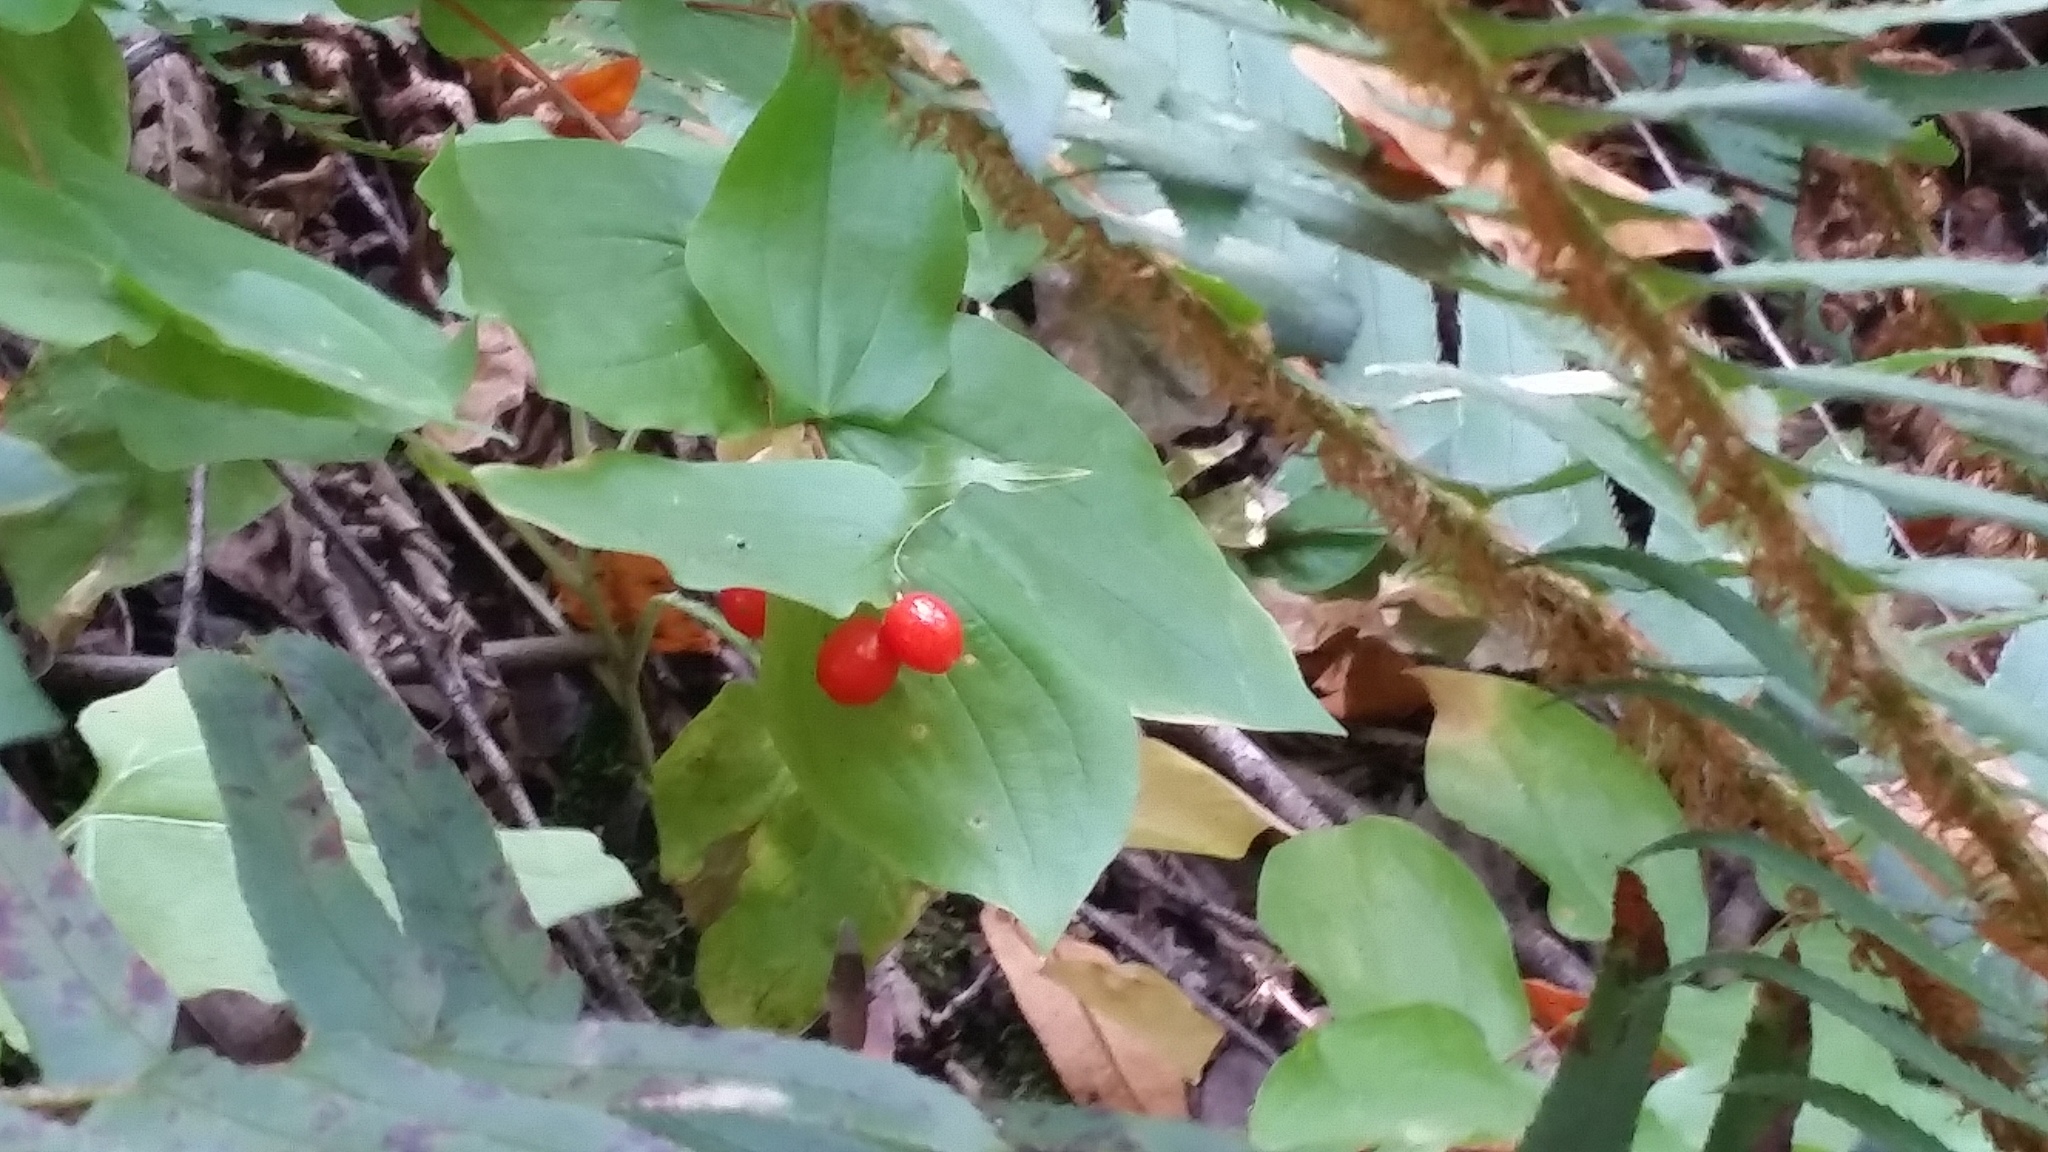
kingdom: Plantae
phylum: Tracheophyta
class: Liliopsida
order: Liliales
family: Liliaceae
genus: Prosartes
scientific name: Prosartes hookeri
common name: Fairy-bells
